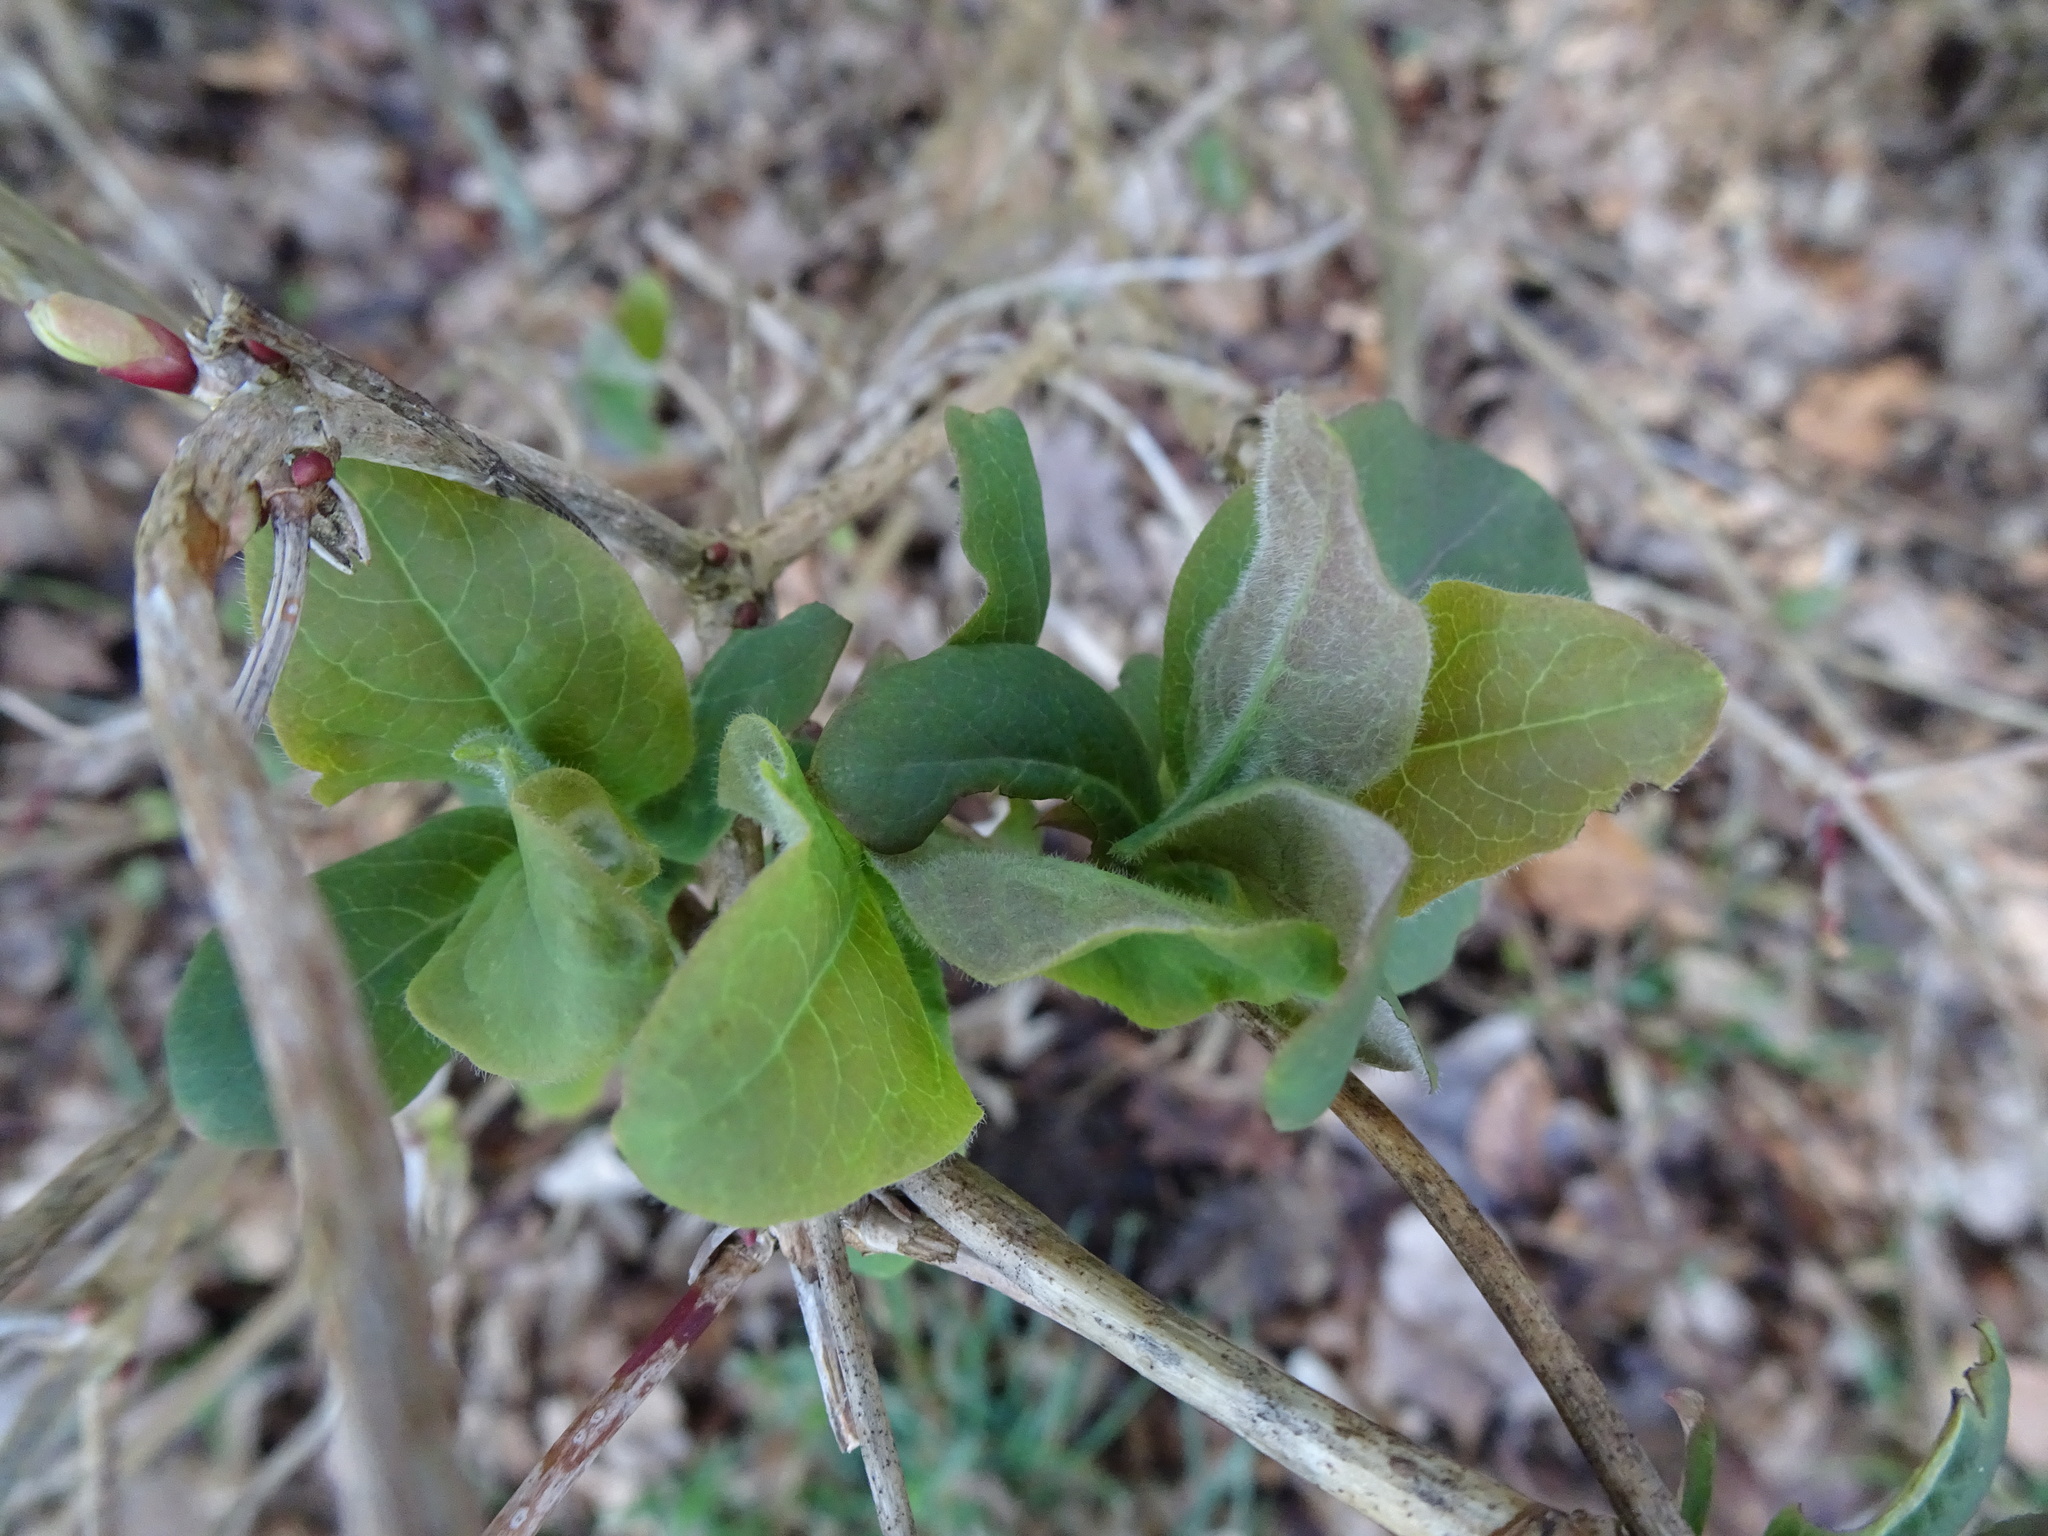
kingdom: Plantae
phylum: Tracheophyta
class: Magnoliopsida
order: Dipsacales
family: Caprifoliaceae
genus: Lonicera
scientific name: Lonicera periclymenum
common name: European honeysuckle
